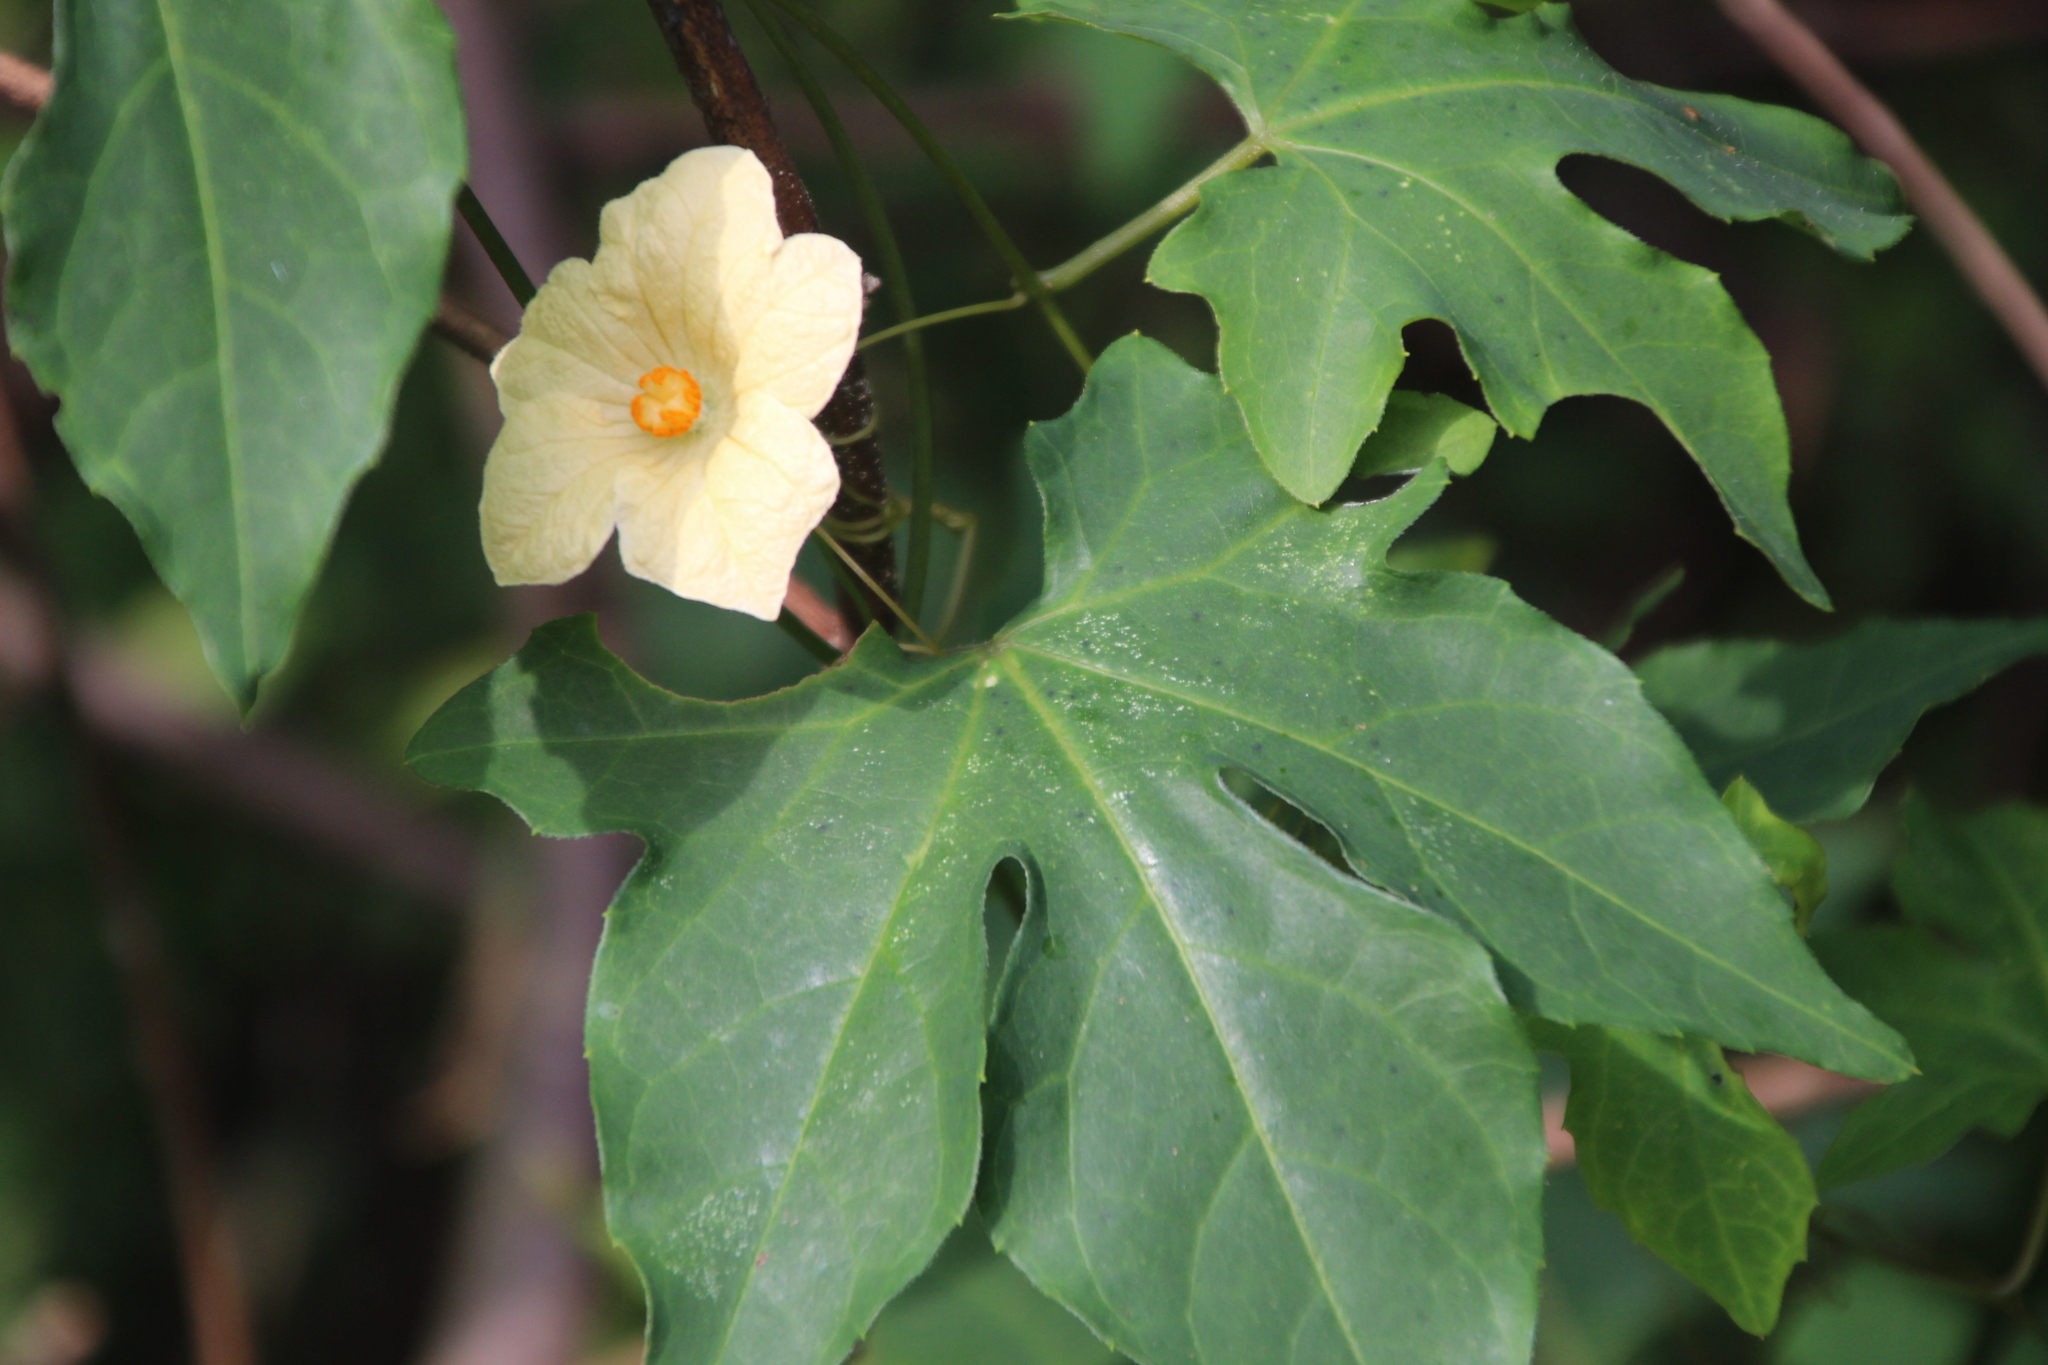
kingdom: Plantae
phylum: Tracheophyta
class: Magnoliopsida
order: Cucurbitales
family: Cucurbitaceae
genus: Coccinia
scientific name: Coccinia palmata
